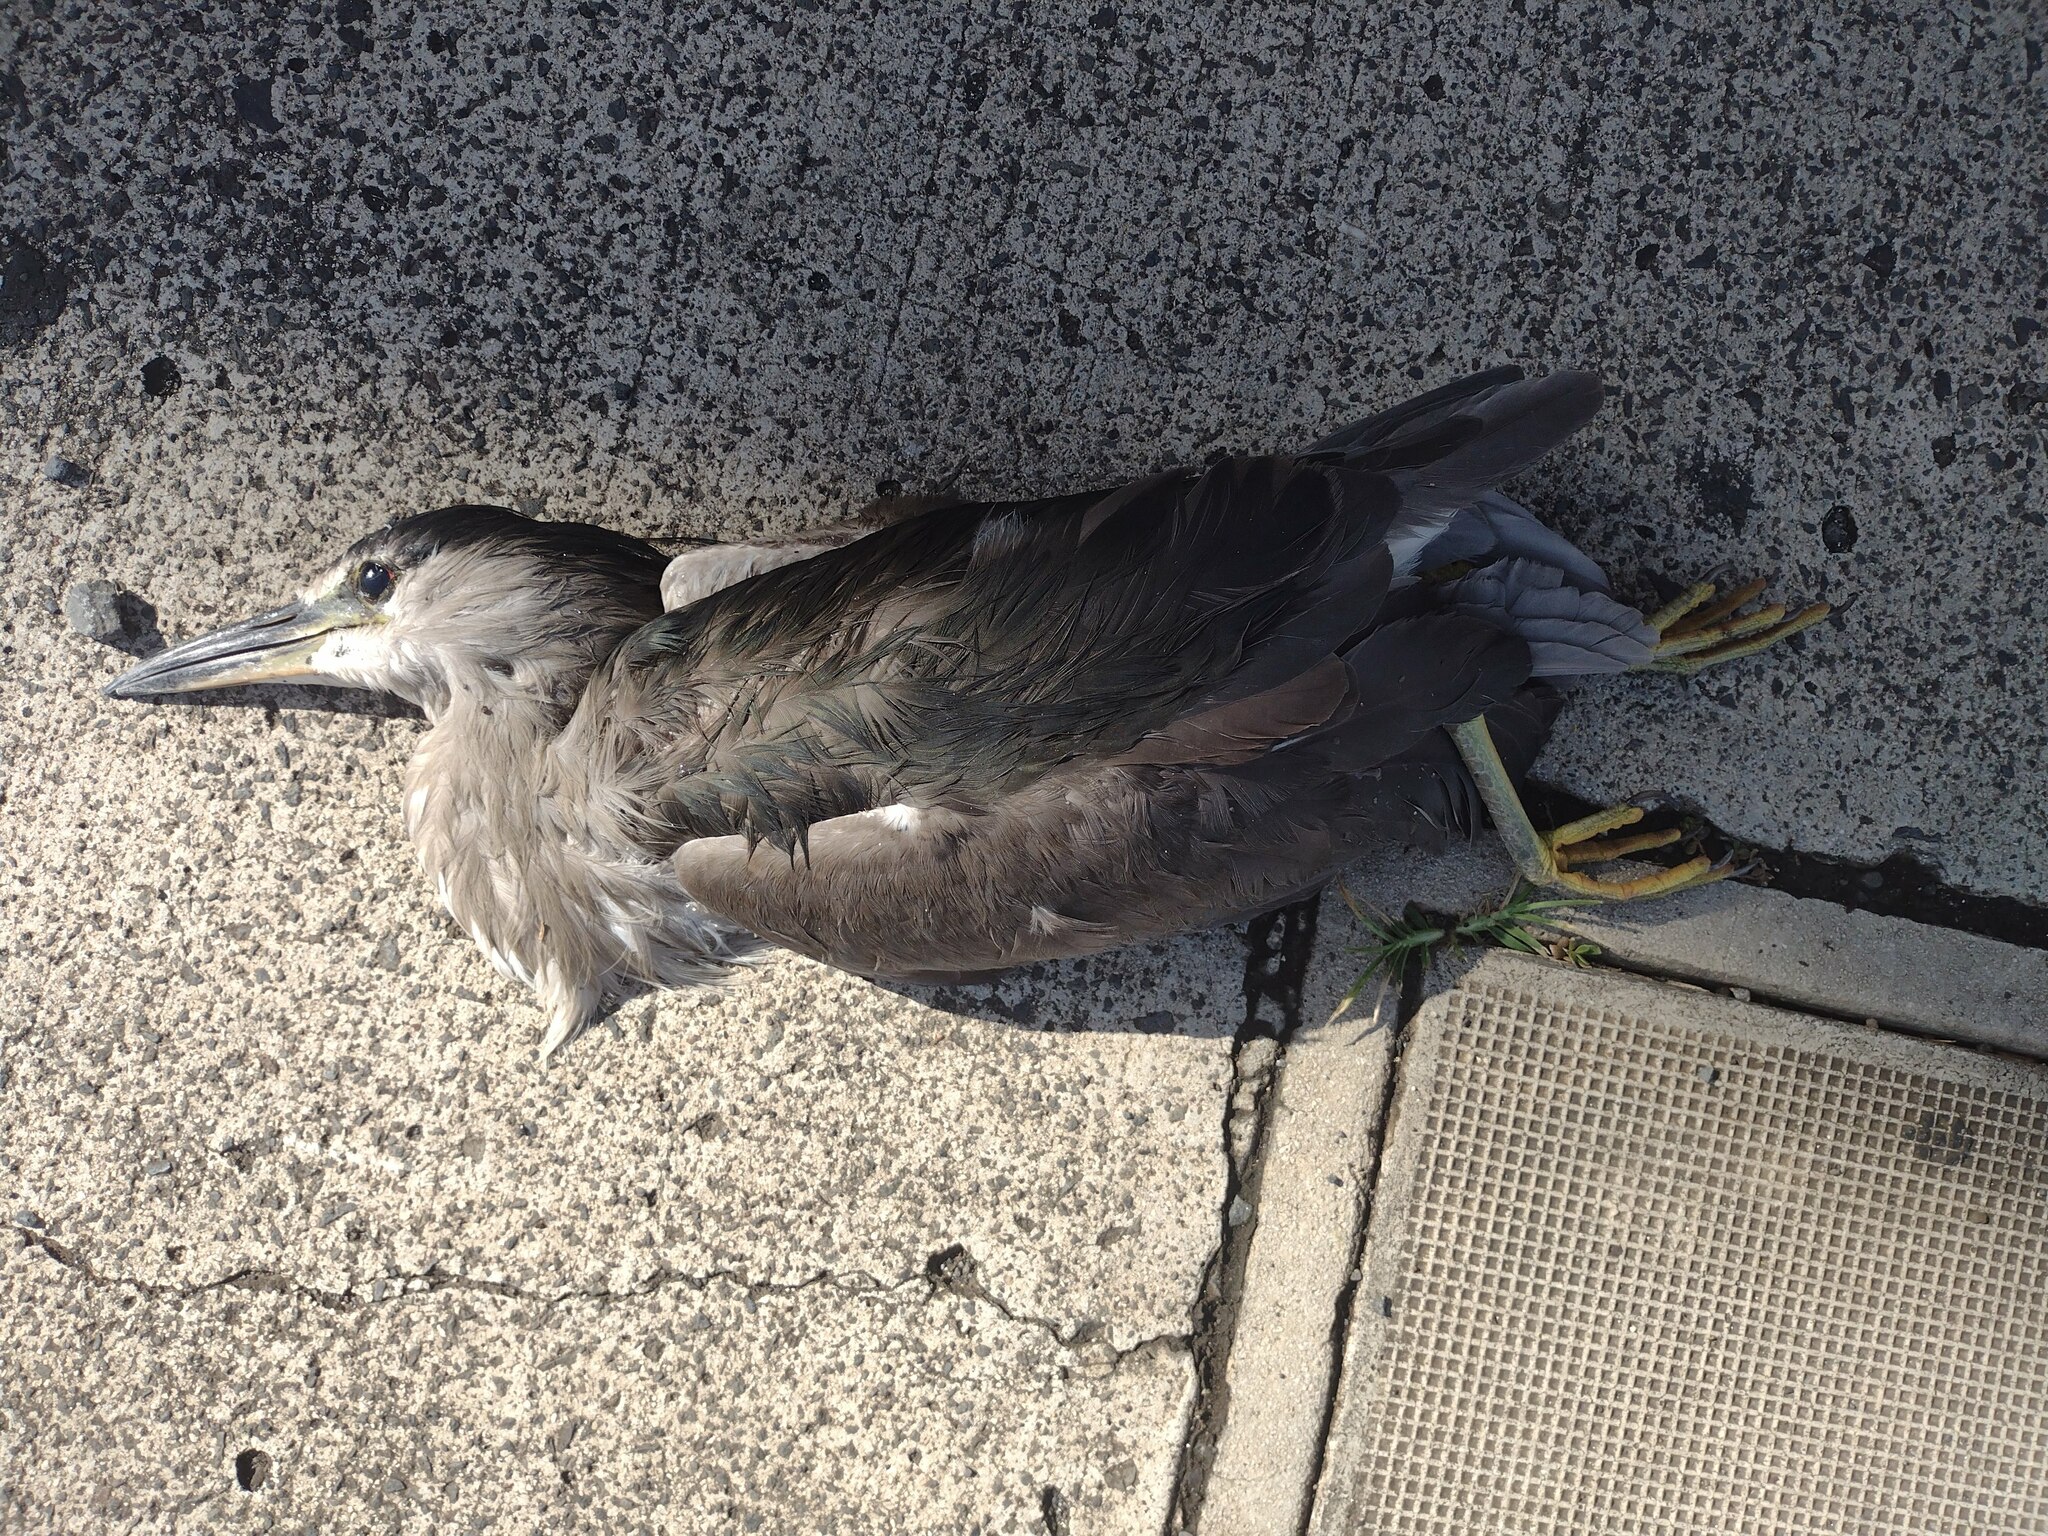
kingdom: Animalia
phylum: Chordata
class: Aves
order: Pelecaniformes
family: Ardeidae
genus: Nycticorax
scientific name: Nycticorax nycticorax
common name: Black-crowned night heron
